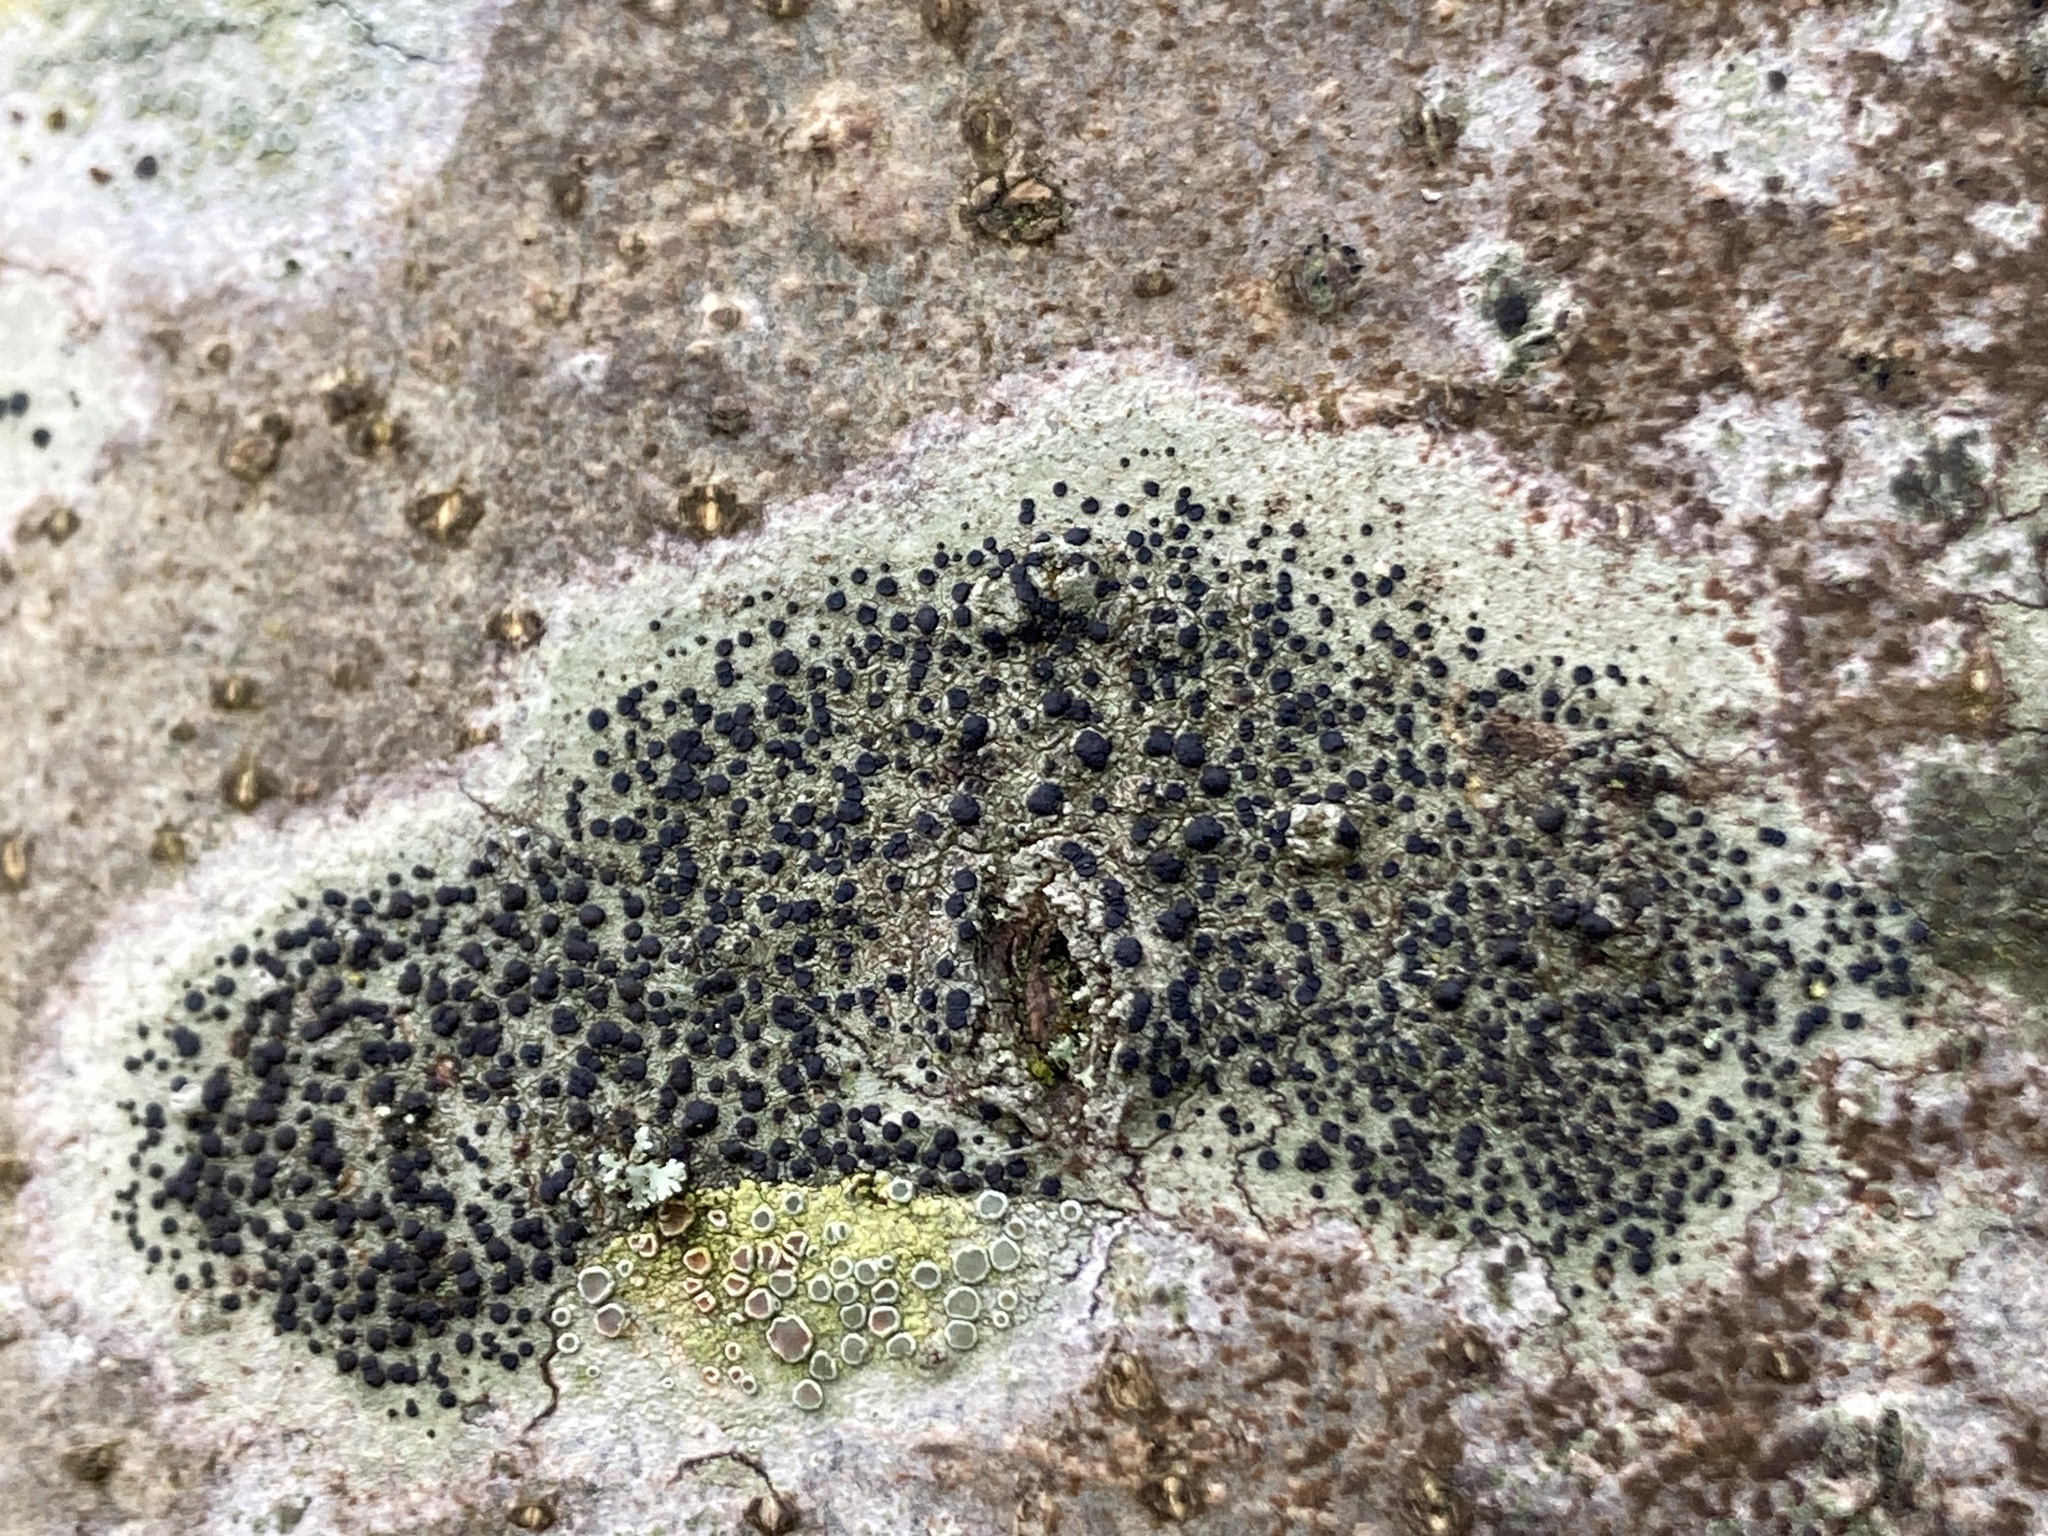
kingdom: Fungi
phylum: Ascomycota
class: Lecanoromycetes
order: Lecanorales
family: Lecanoraceae
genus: Lecidella
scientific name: Lecidella elaeochroma
